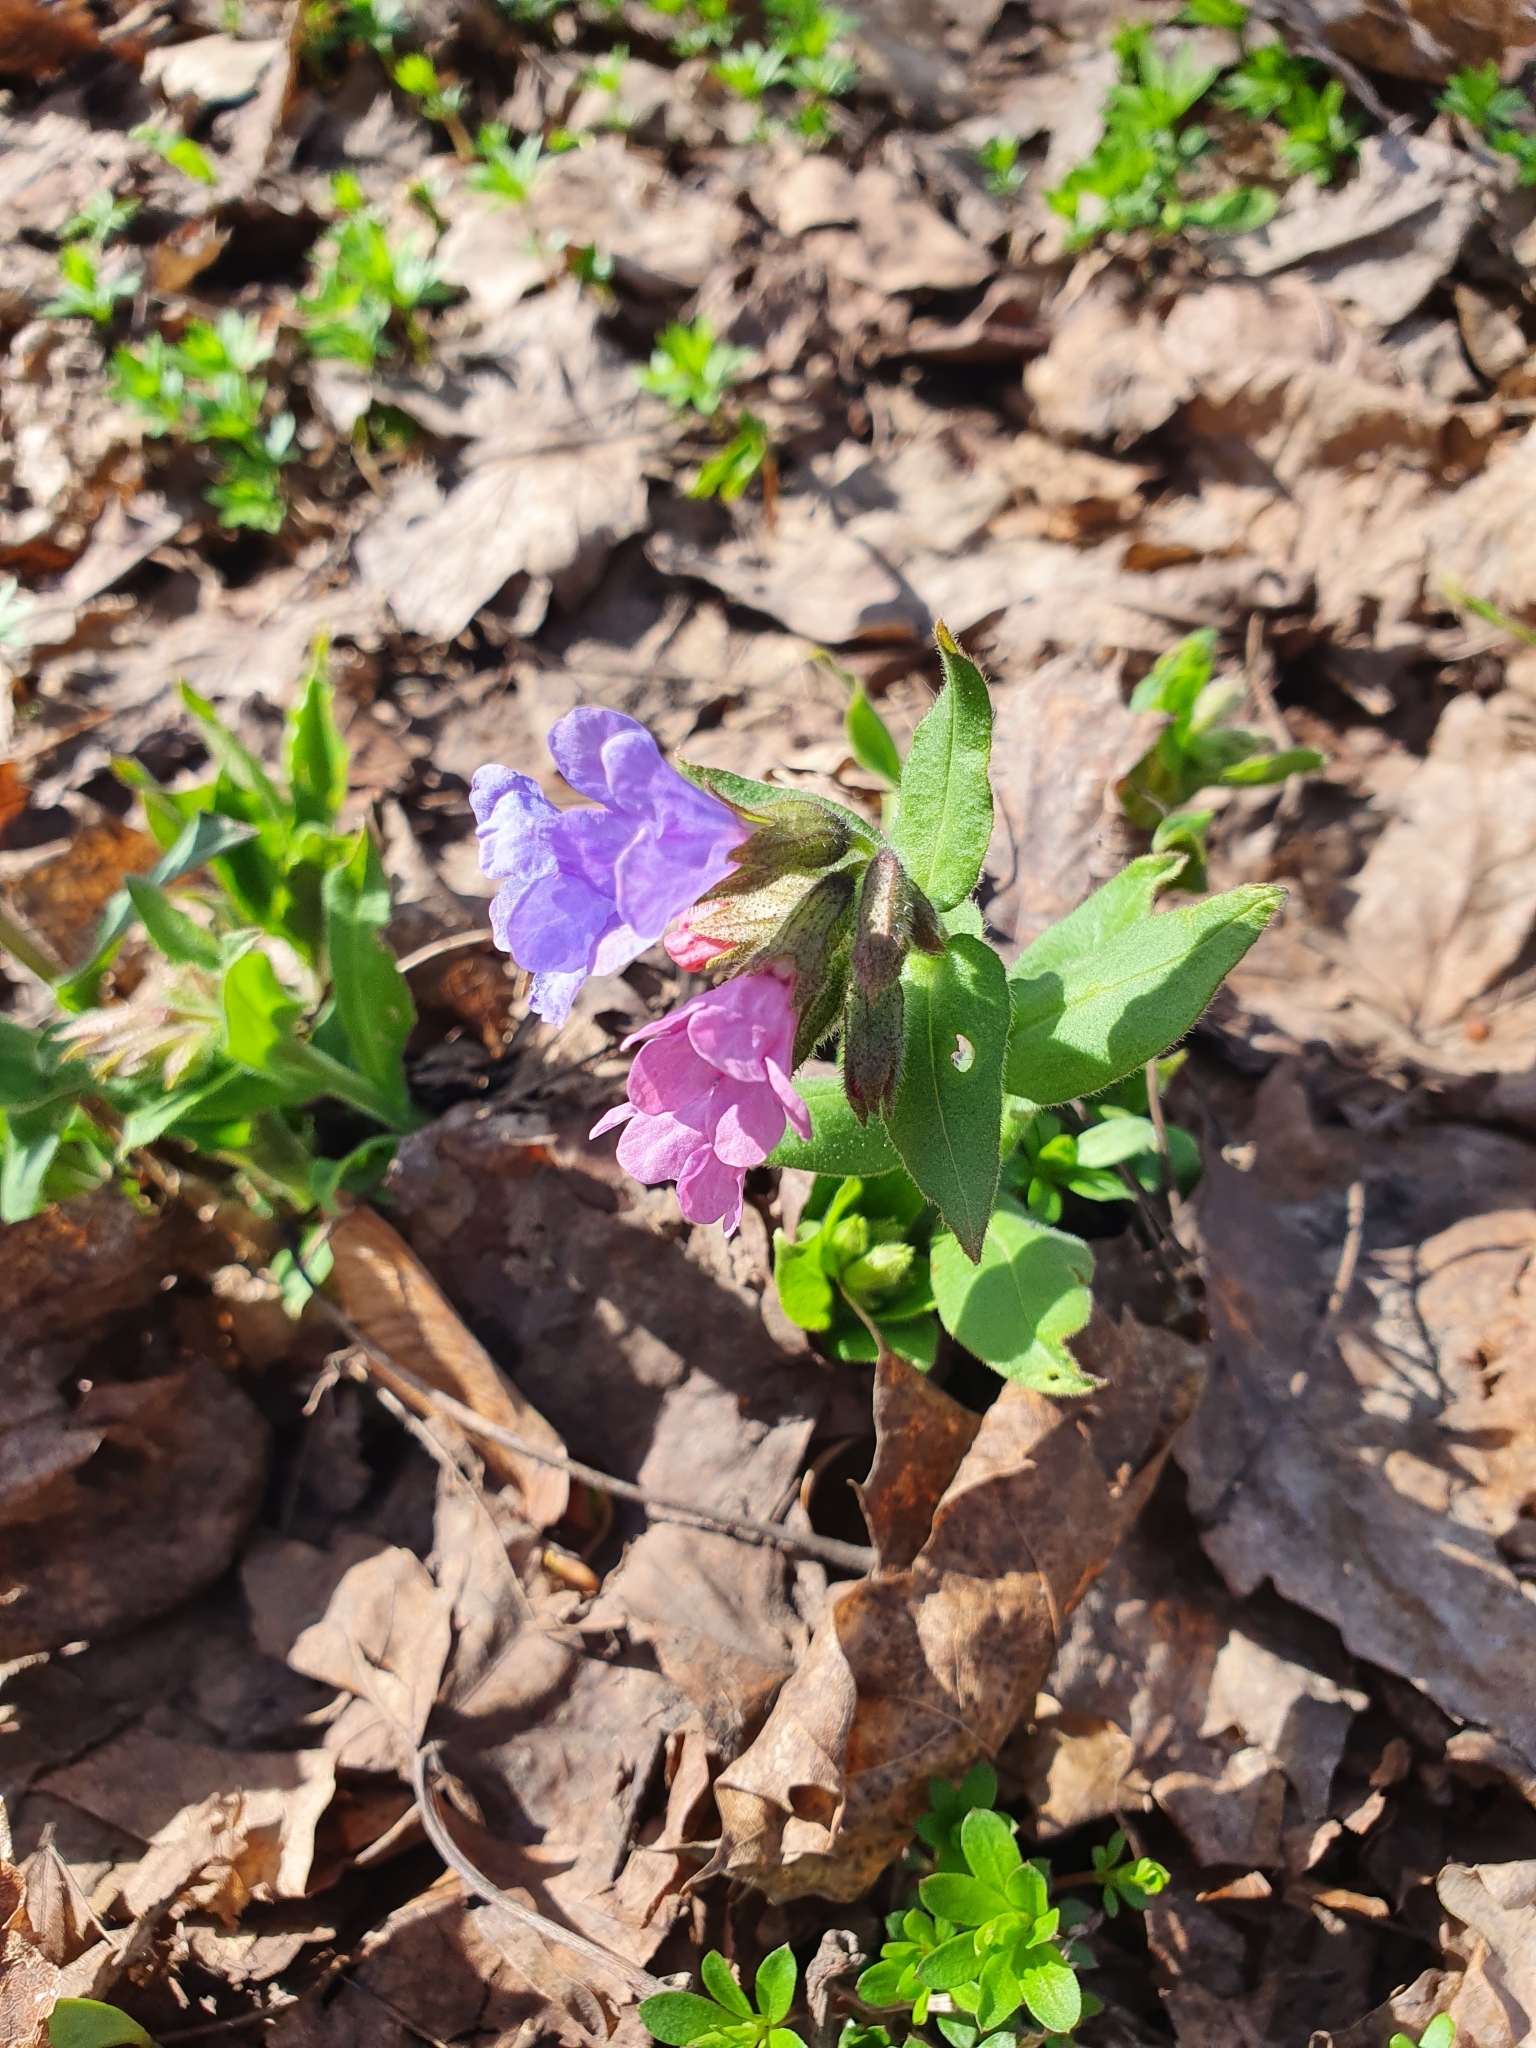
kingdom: Plantae
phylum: Tracheophyta
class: Magnoliopsida
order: Boraginales
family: Boraginaceae
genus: Pulmonaria
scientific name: Pulmonaria obscura
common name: Suffolk lungwort
